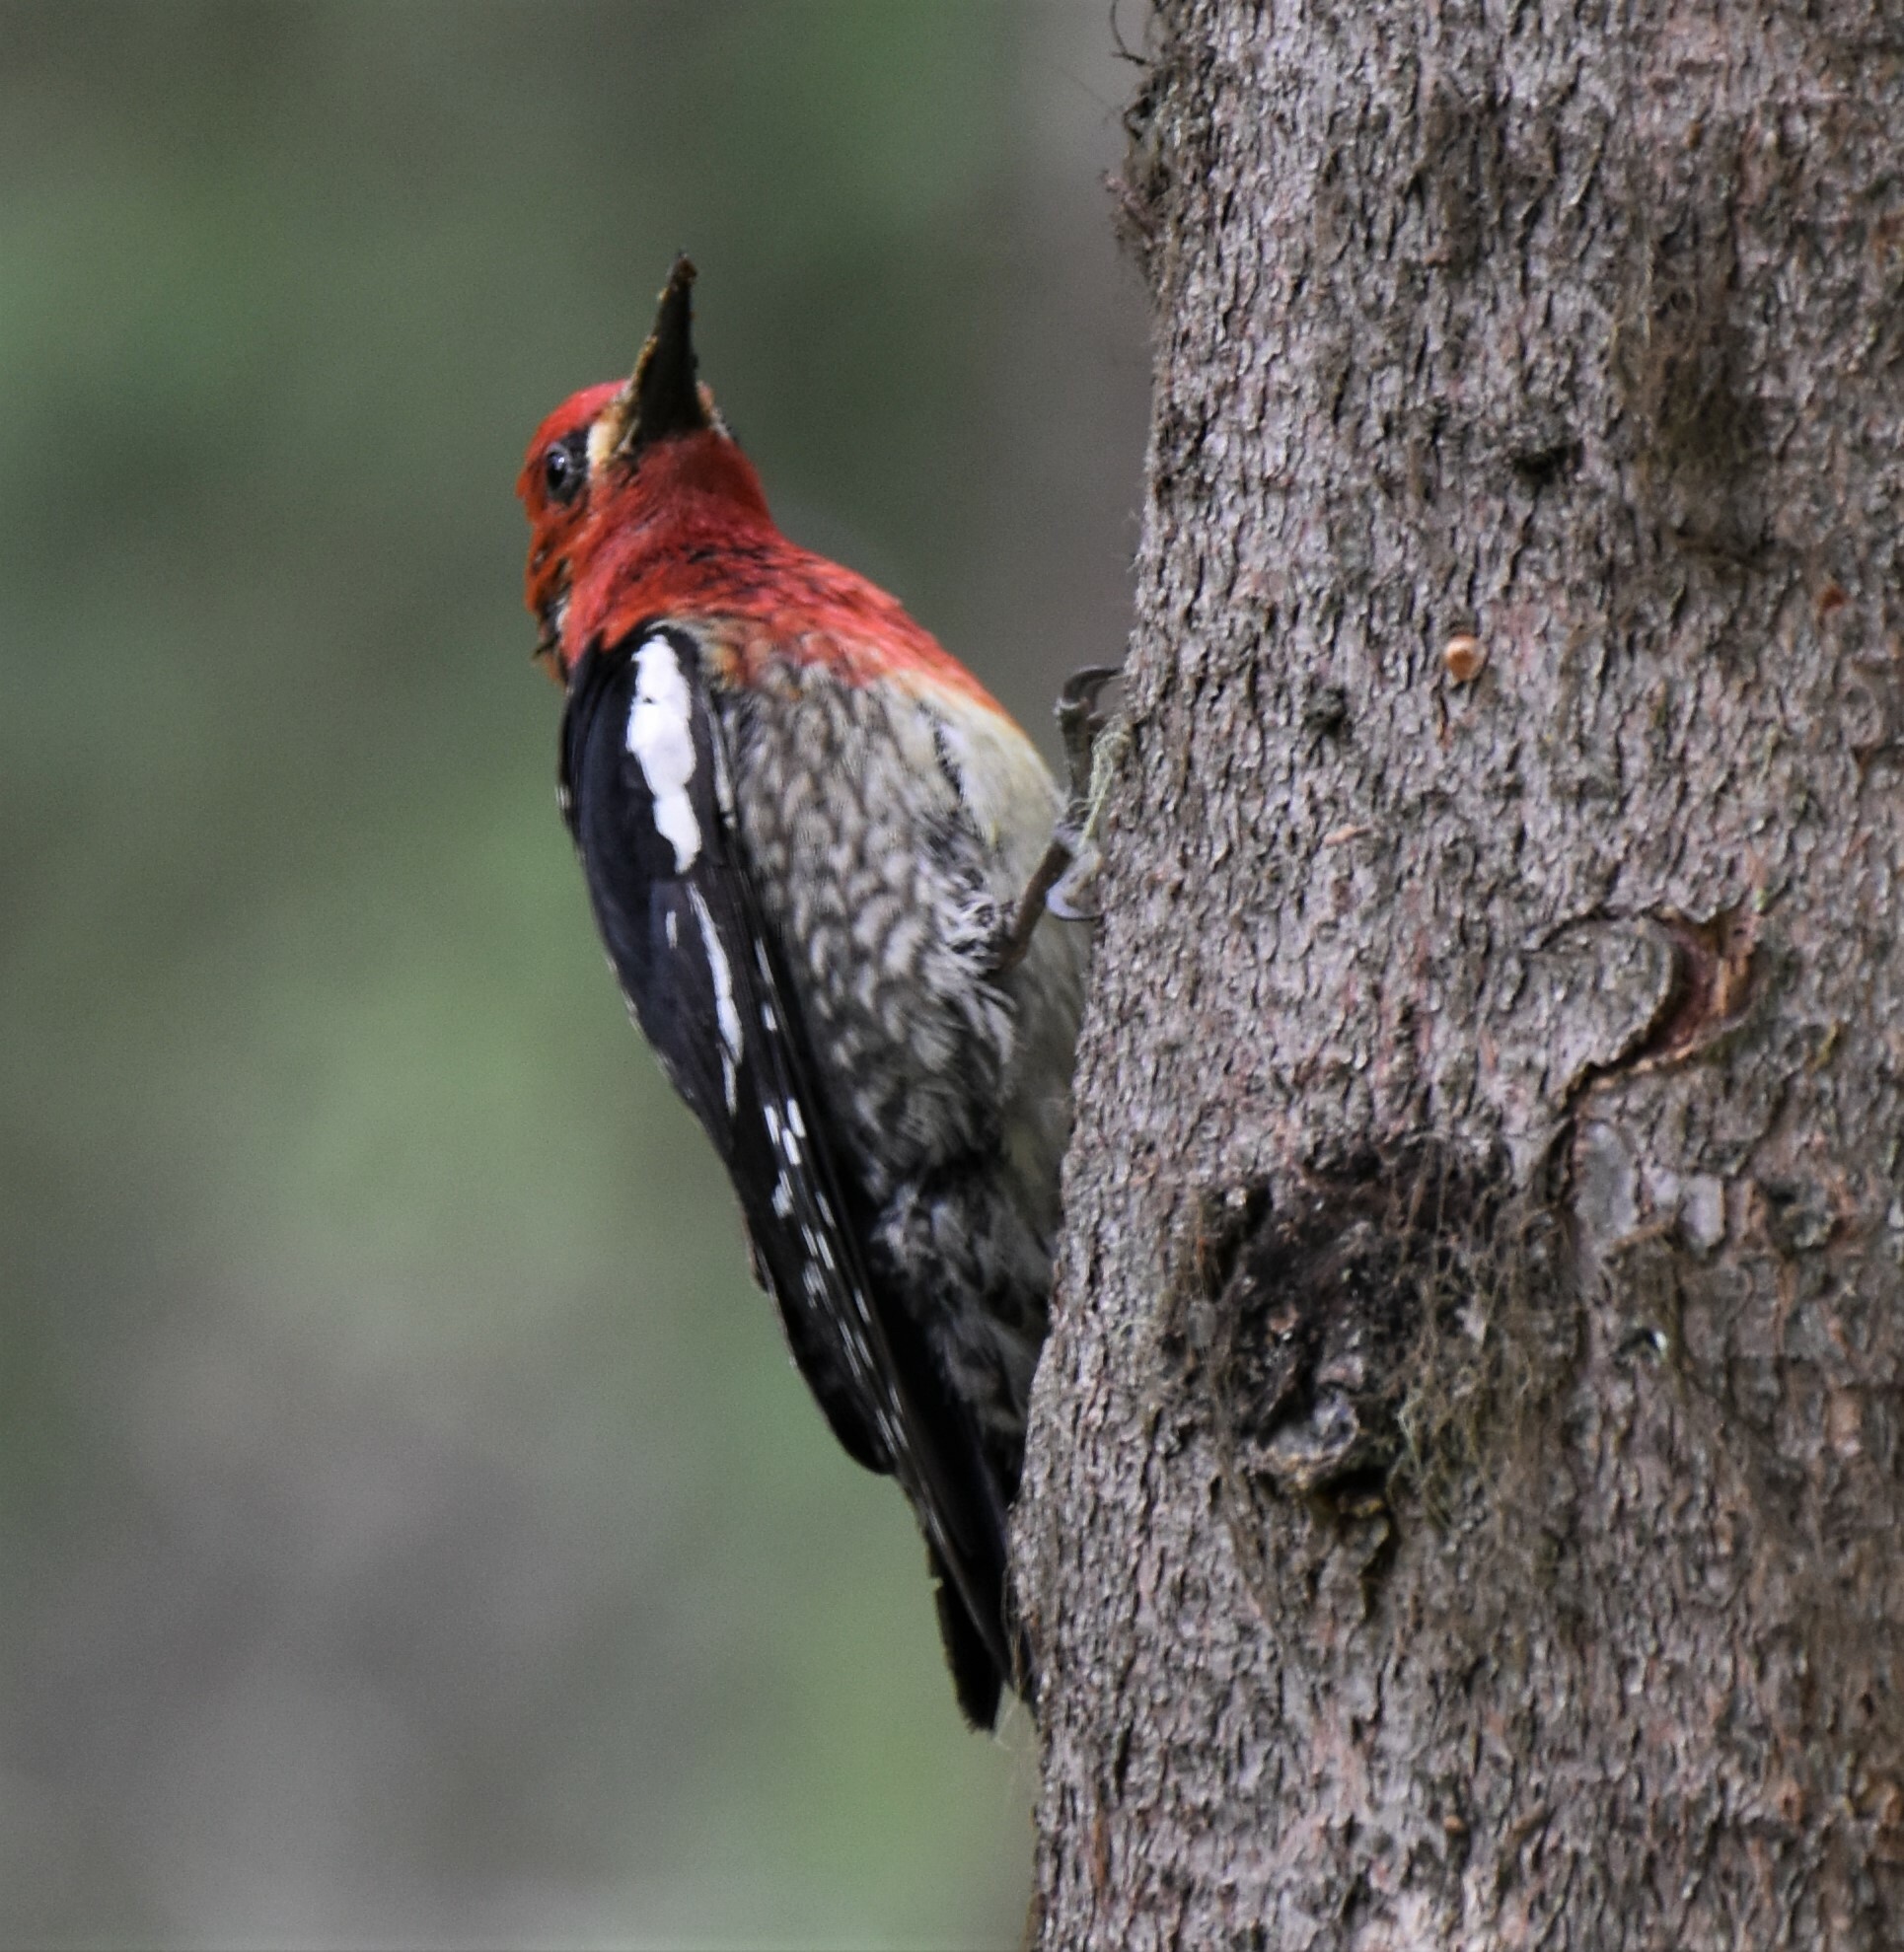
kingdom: Animalia
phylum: Chordata
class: Aves
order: Piciformes
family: Picidae
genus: Sphyrapicus
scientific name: Sphyrapicus ruber
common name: Red-breasted sapsucker
